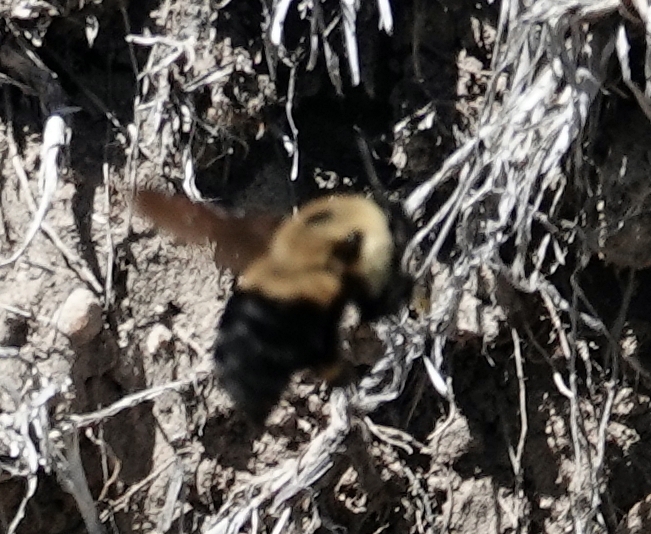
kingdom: Animalia
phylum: Arthropoda
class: Insecta
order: Hymenoptera
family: Apidae
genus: Bombus
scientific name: Bombus griseocollis
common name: Brown-belted bumble bee
